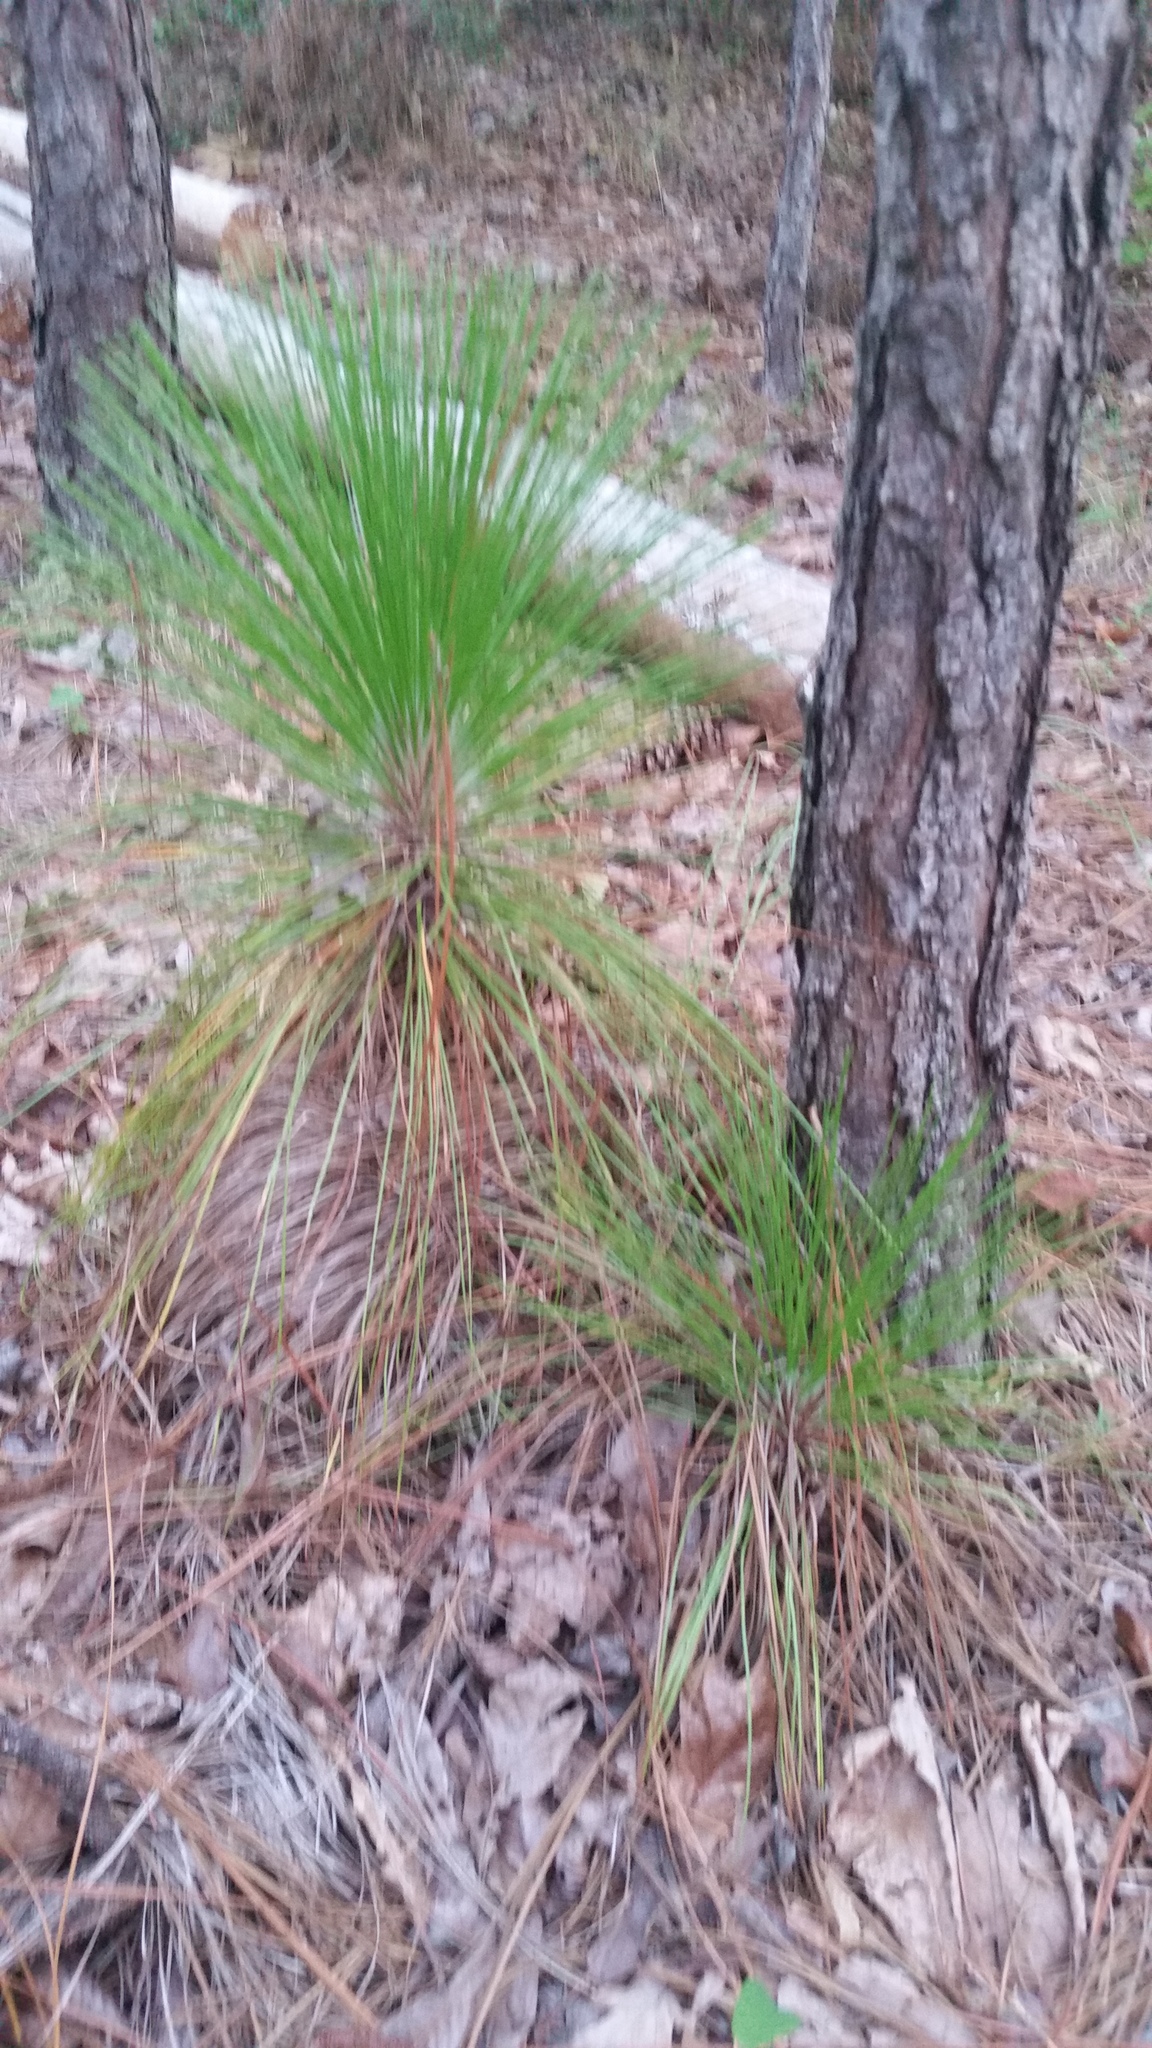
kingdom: Plantae
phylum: Tracheophyta
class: Pinopsida
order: Pinales
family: Pinaceae
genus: Pinus
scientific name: Pinus palustris
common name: Longleaf pine
